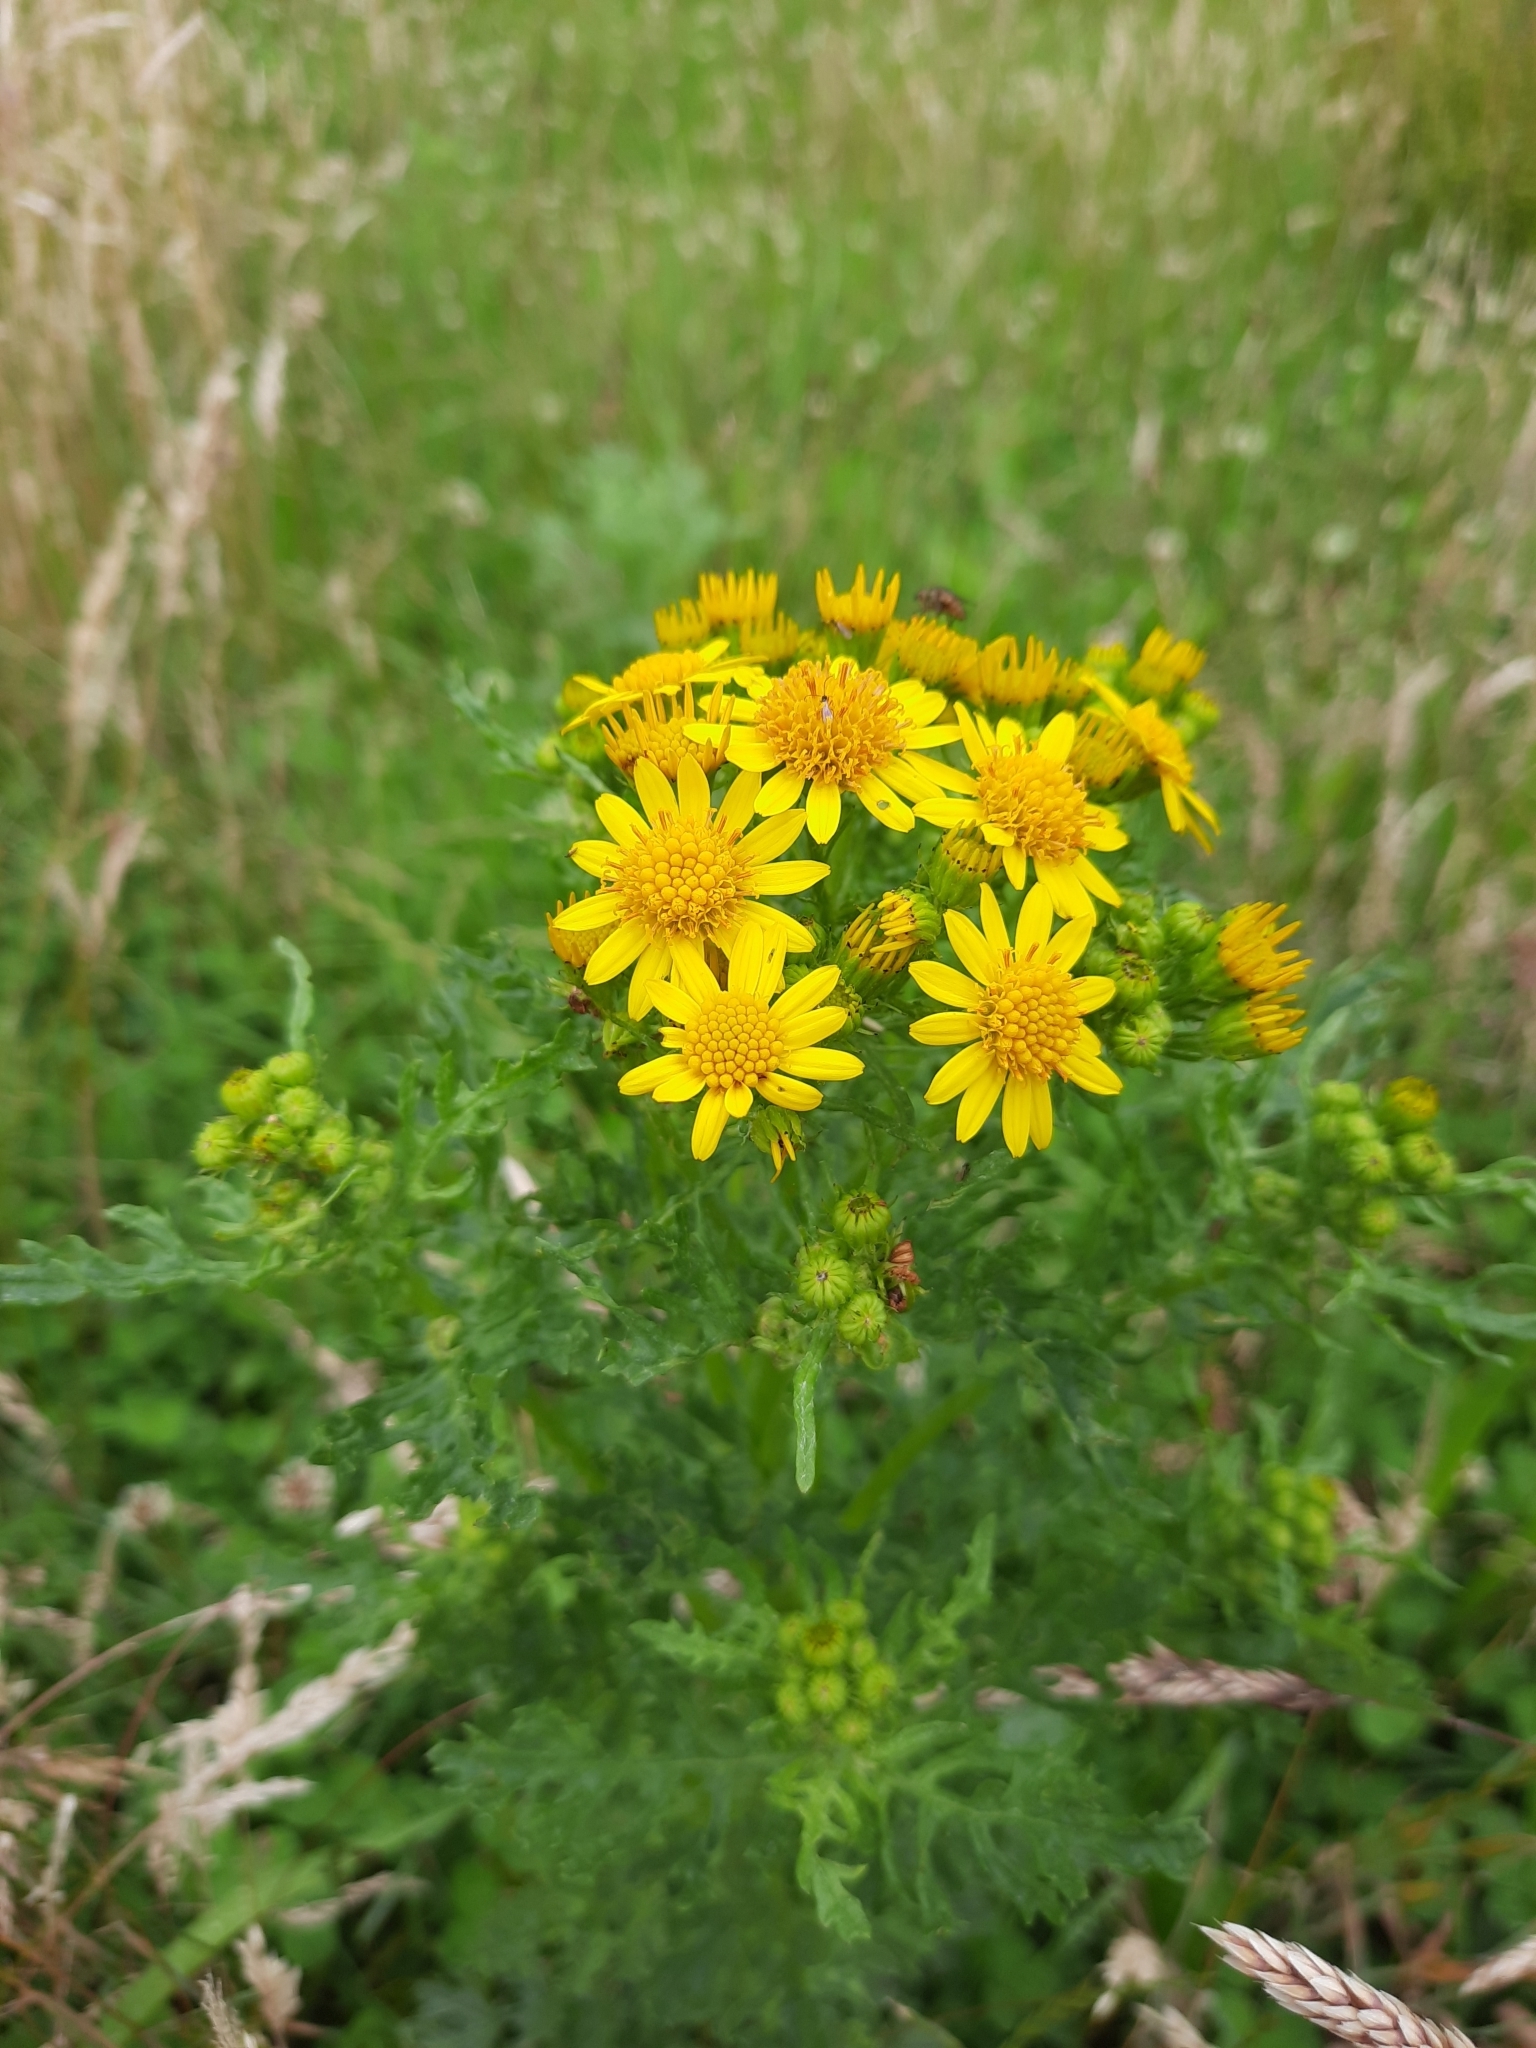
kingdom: Plantae
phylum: Tracheophyta
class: Magnoliopsida
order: Asterales
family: Asteraceae
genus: Jacobaea
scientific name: Jacobaea vulgaris
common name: Stinking willie
